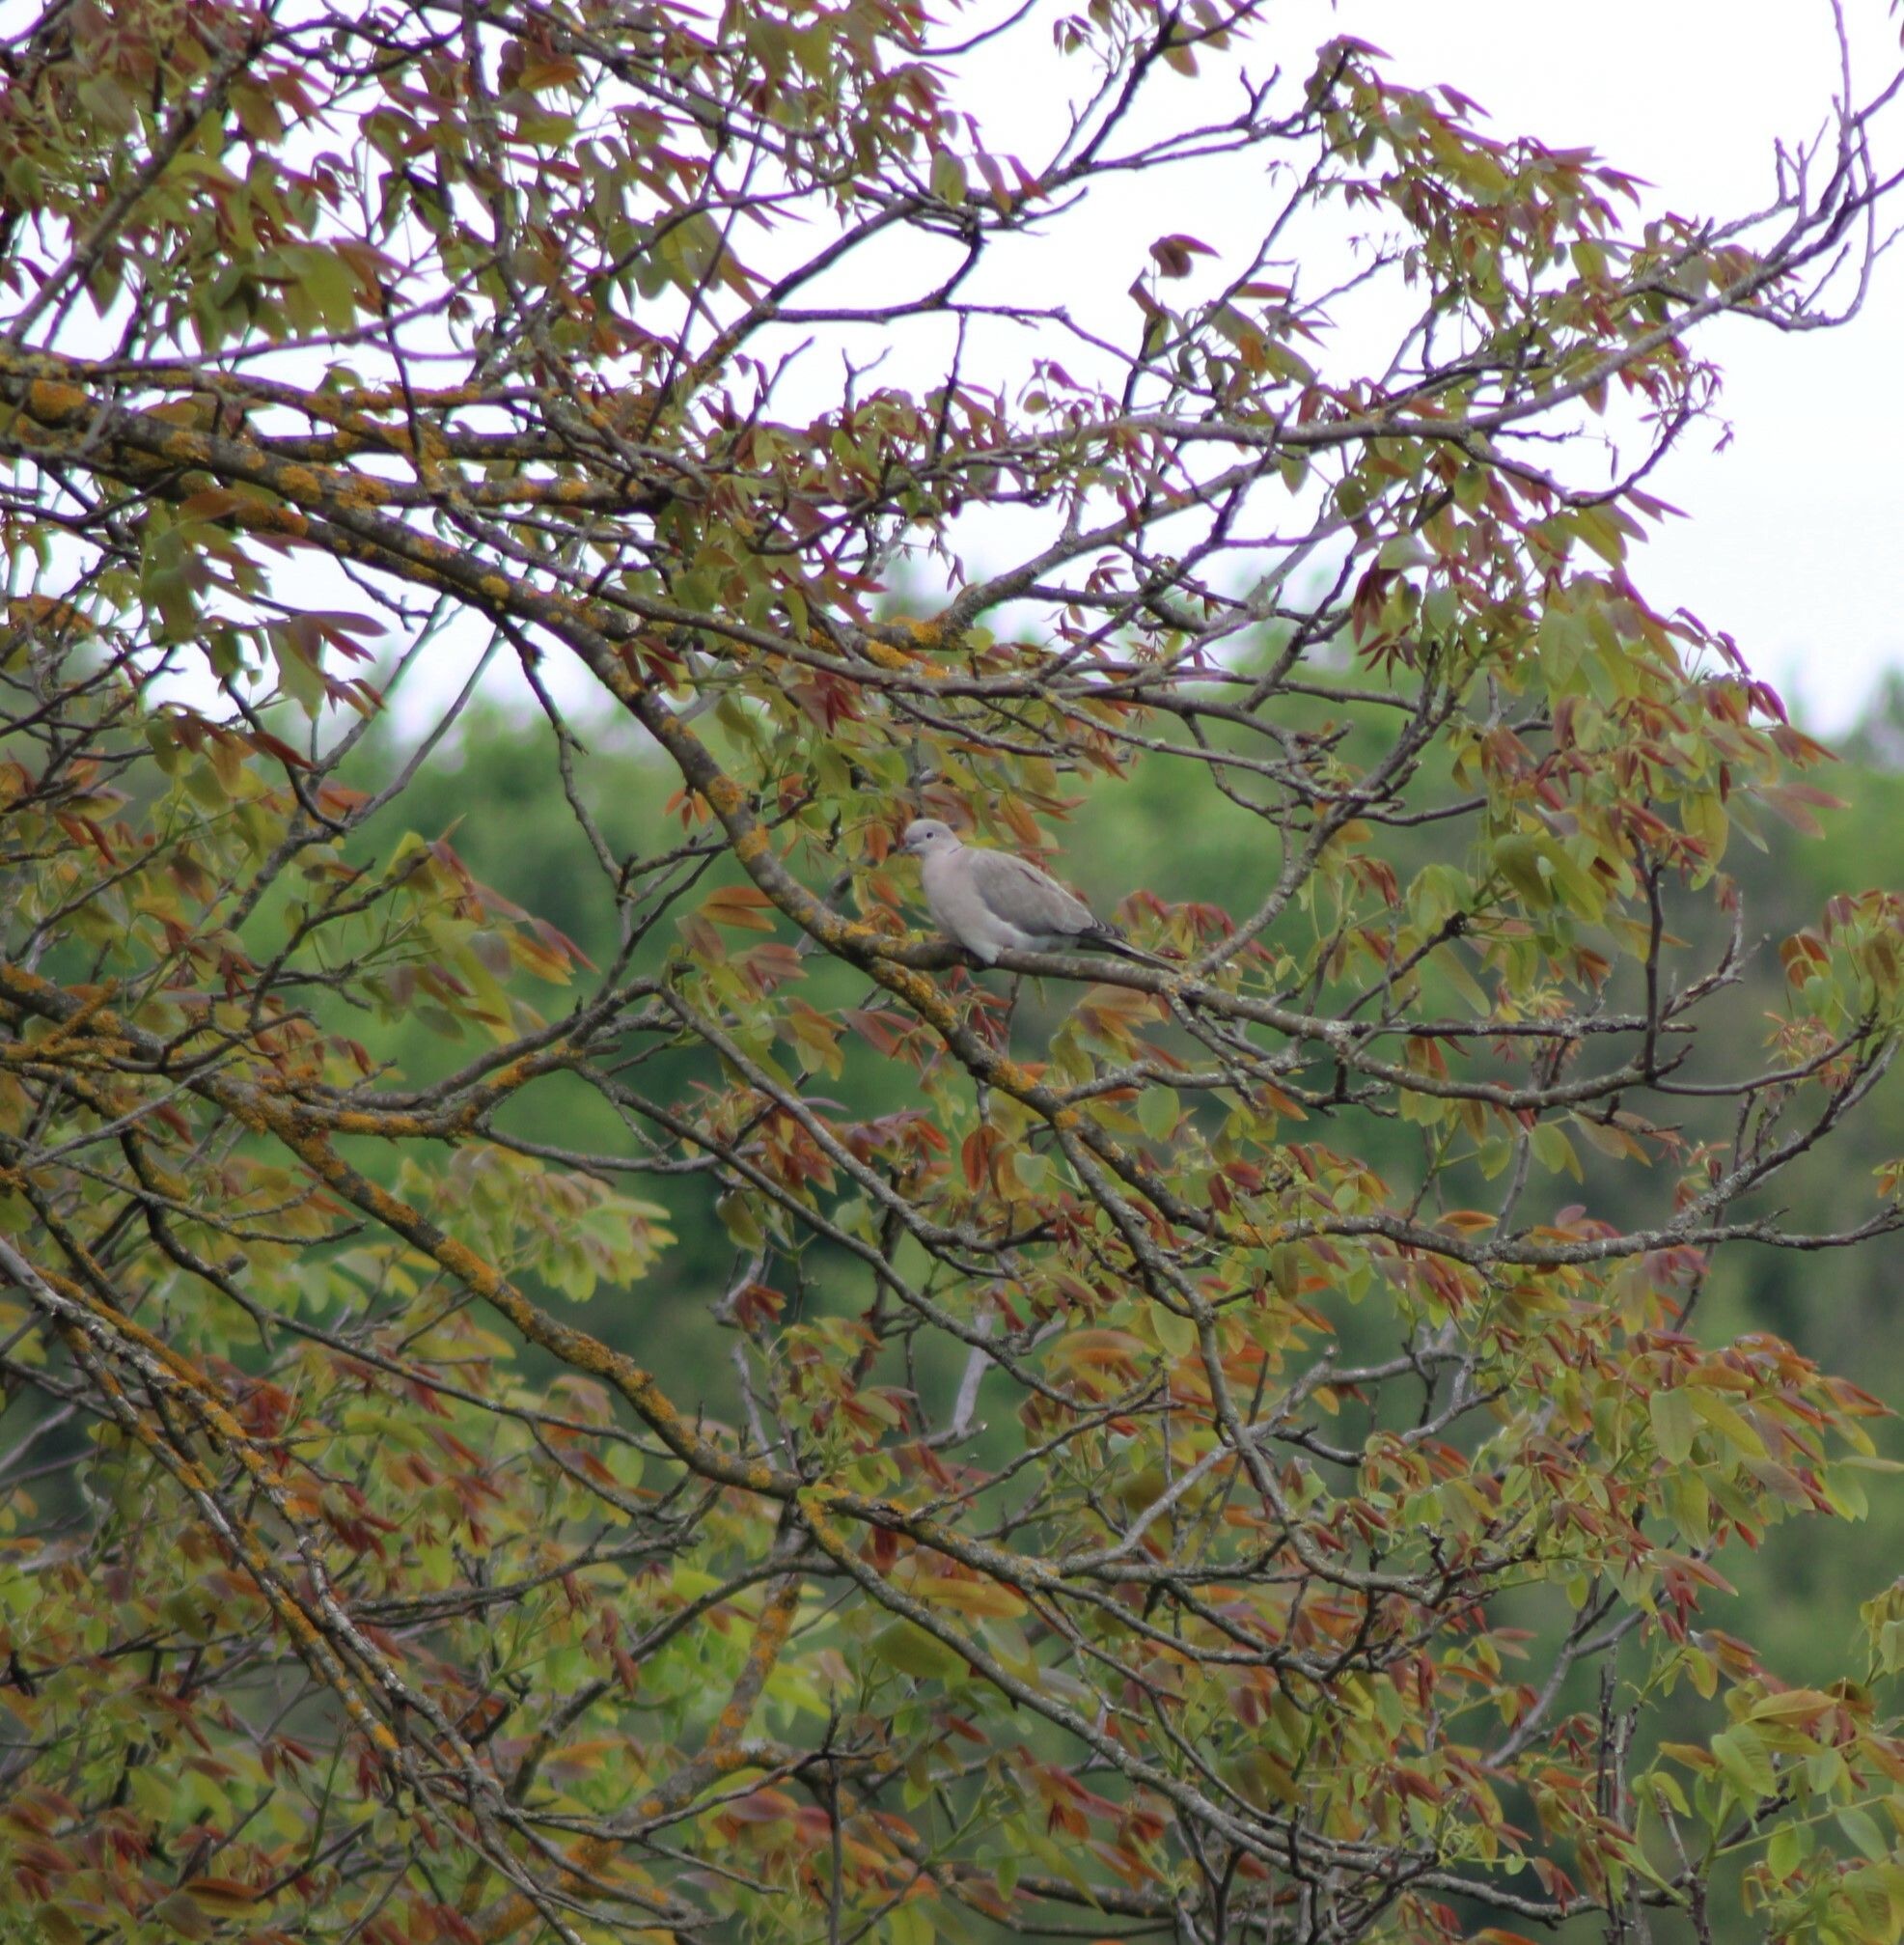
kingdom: Animalia
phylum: Chordata
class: Aves
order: Columbiformes
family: Columbidae
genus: Streptopelia
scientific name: Streptopelia decaocto
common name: Eurasian collared dove
